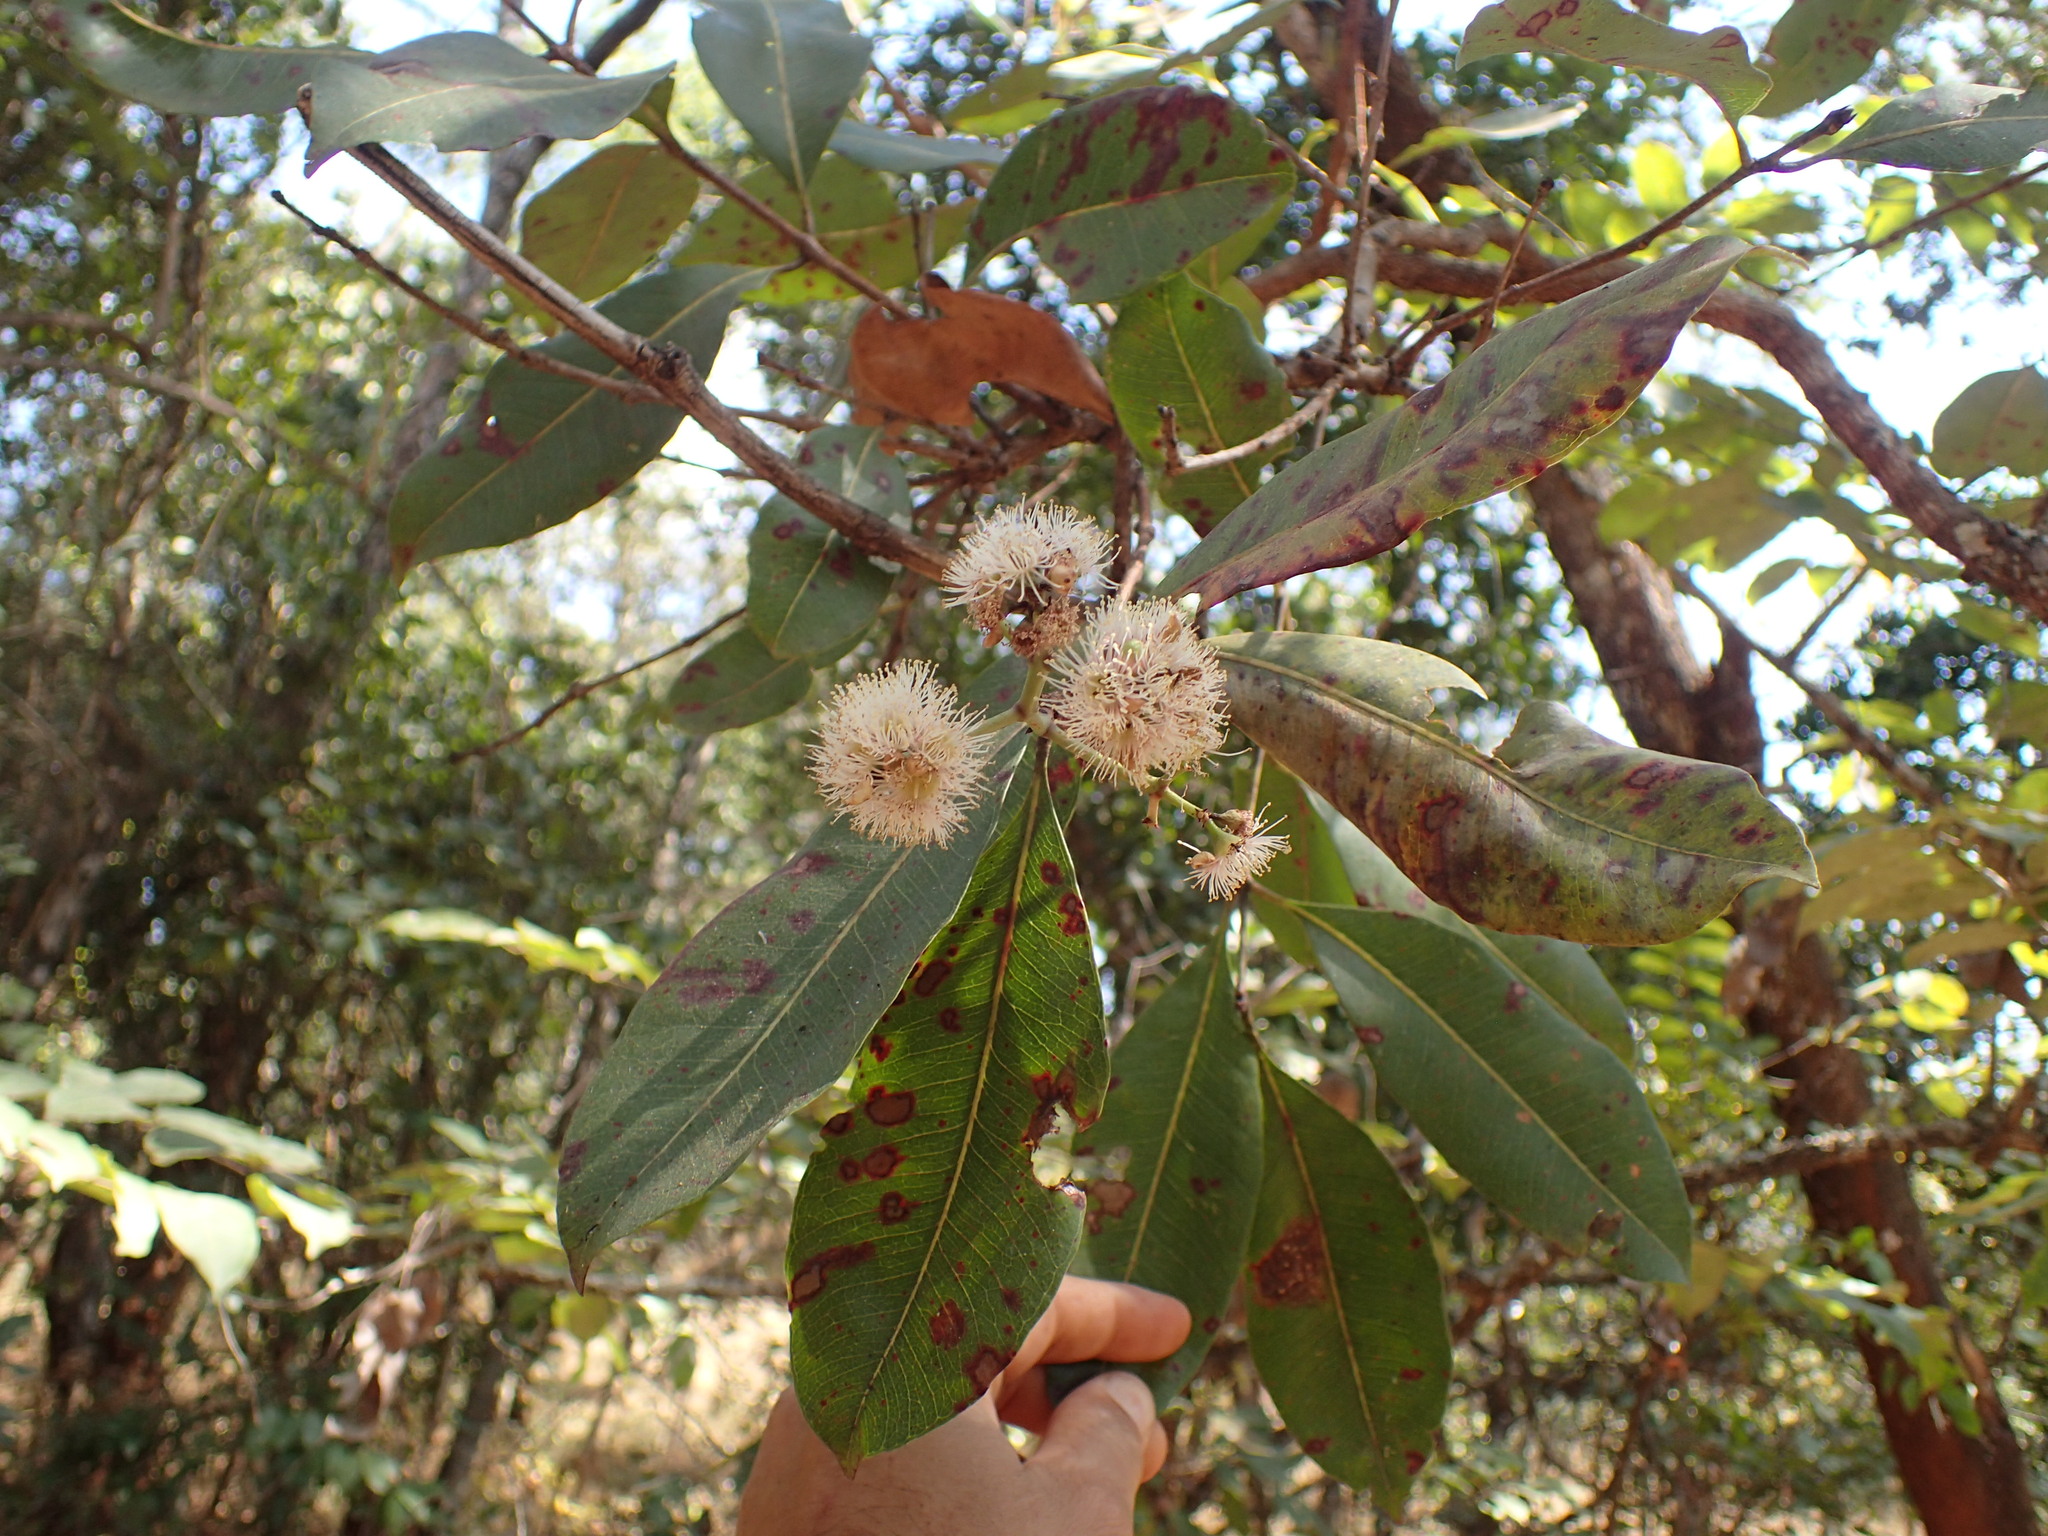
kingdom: Plantae
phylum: Tracheophyta
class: Magnoliopsida
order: Myrtales
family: Myrtaceae
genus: Syzygium
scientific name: Syzygium guineense
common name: Water-pear
